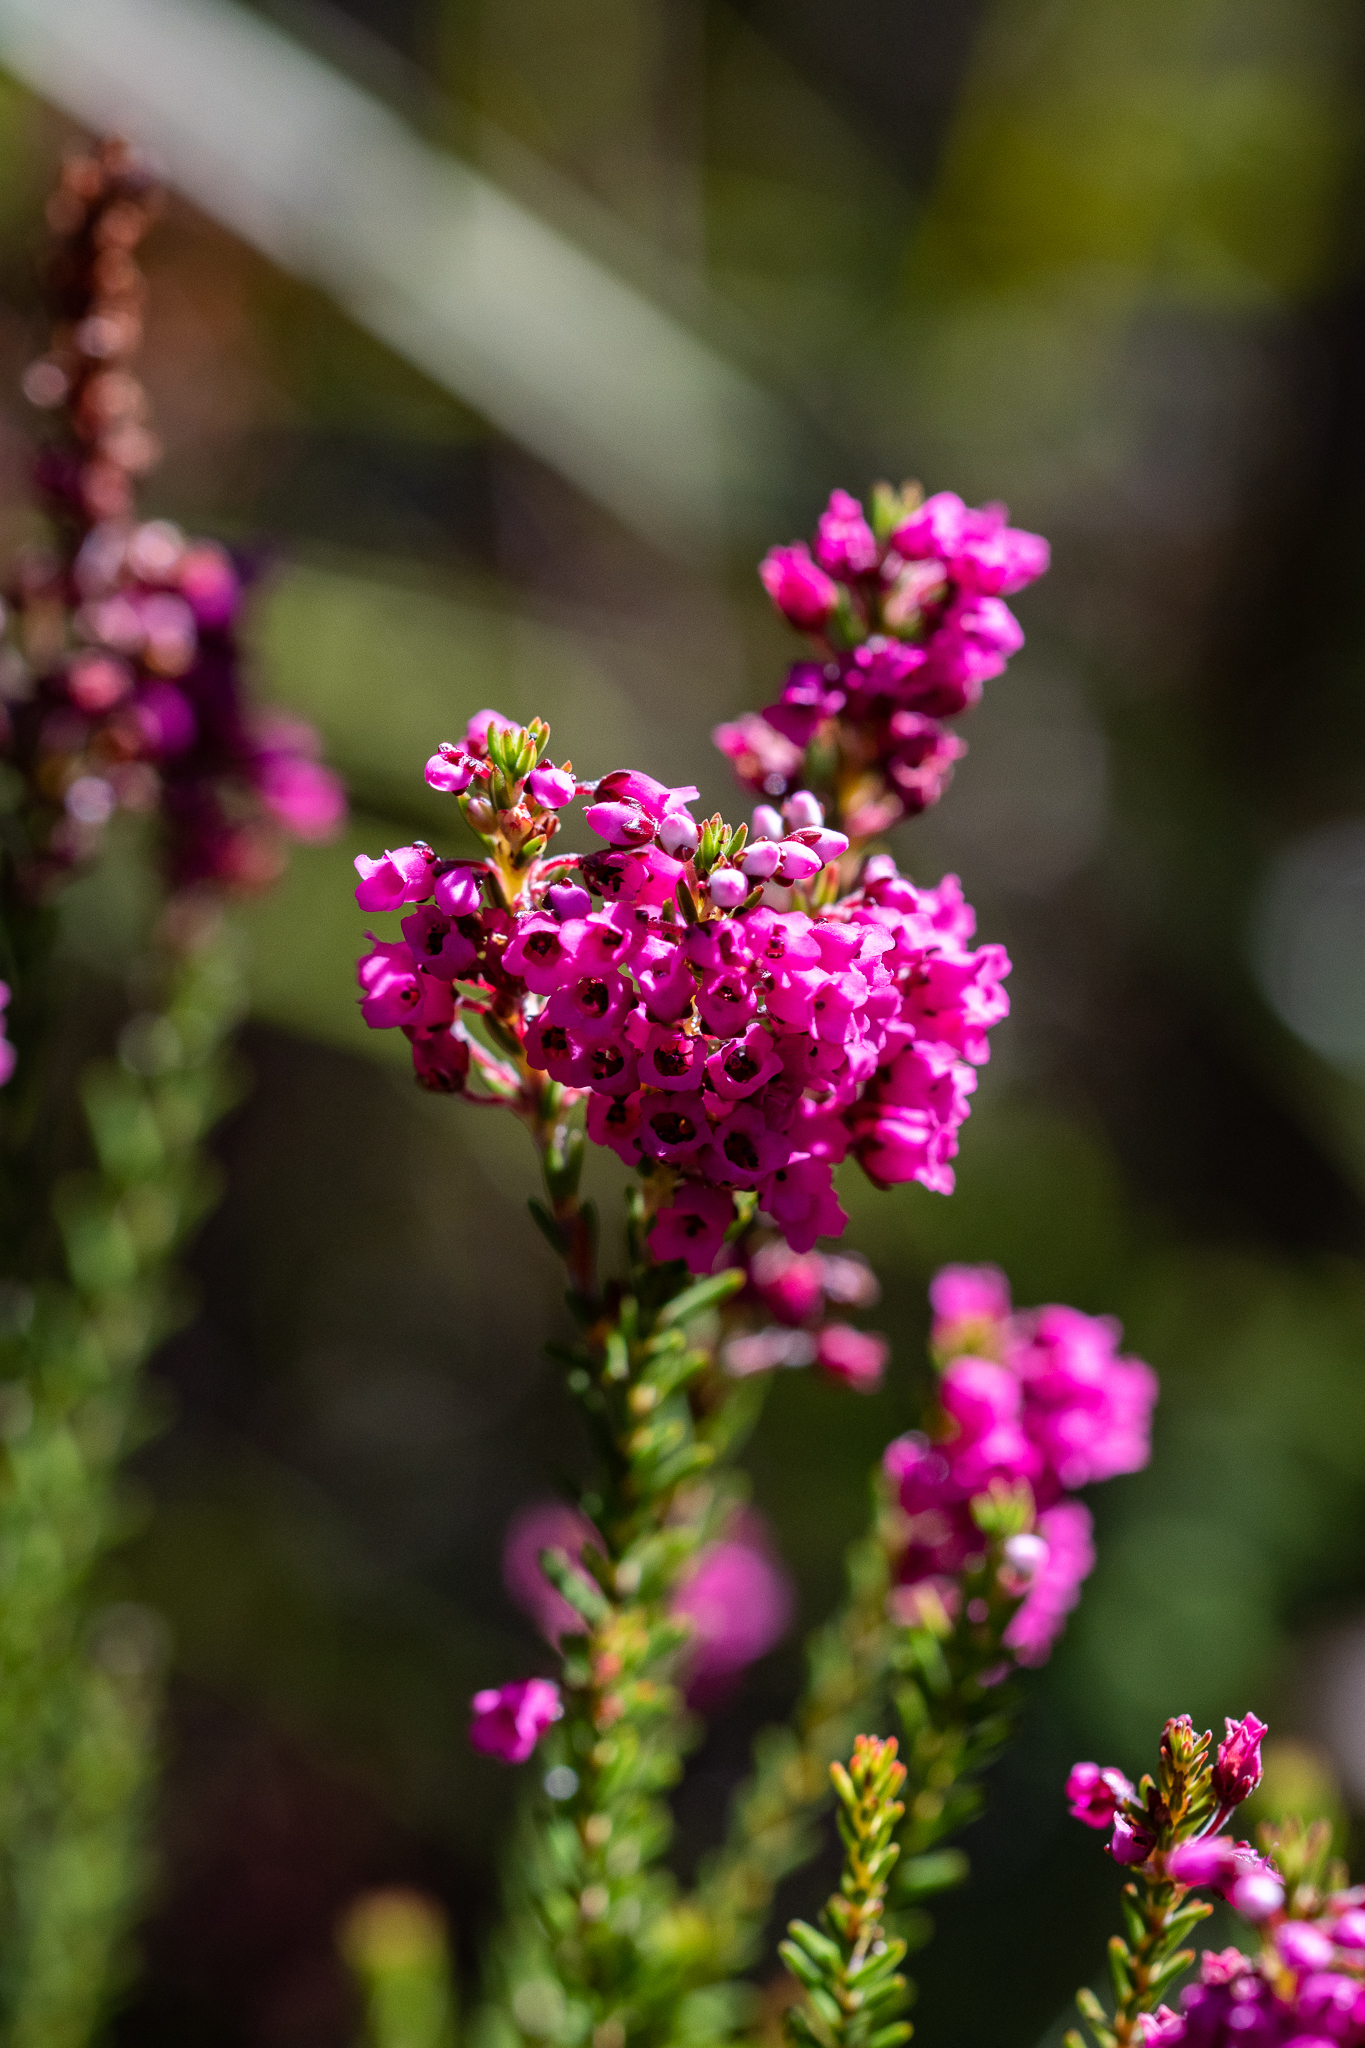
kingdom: Plantae
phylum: Tracheophyta
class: Magnoliopsida
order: Ericales
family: Ericaceae
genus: Erica
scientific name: Erica pulchella
